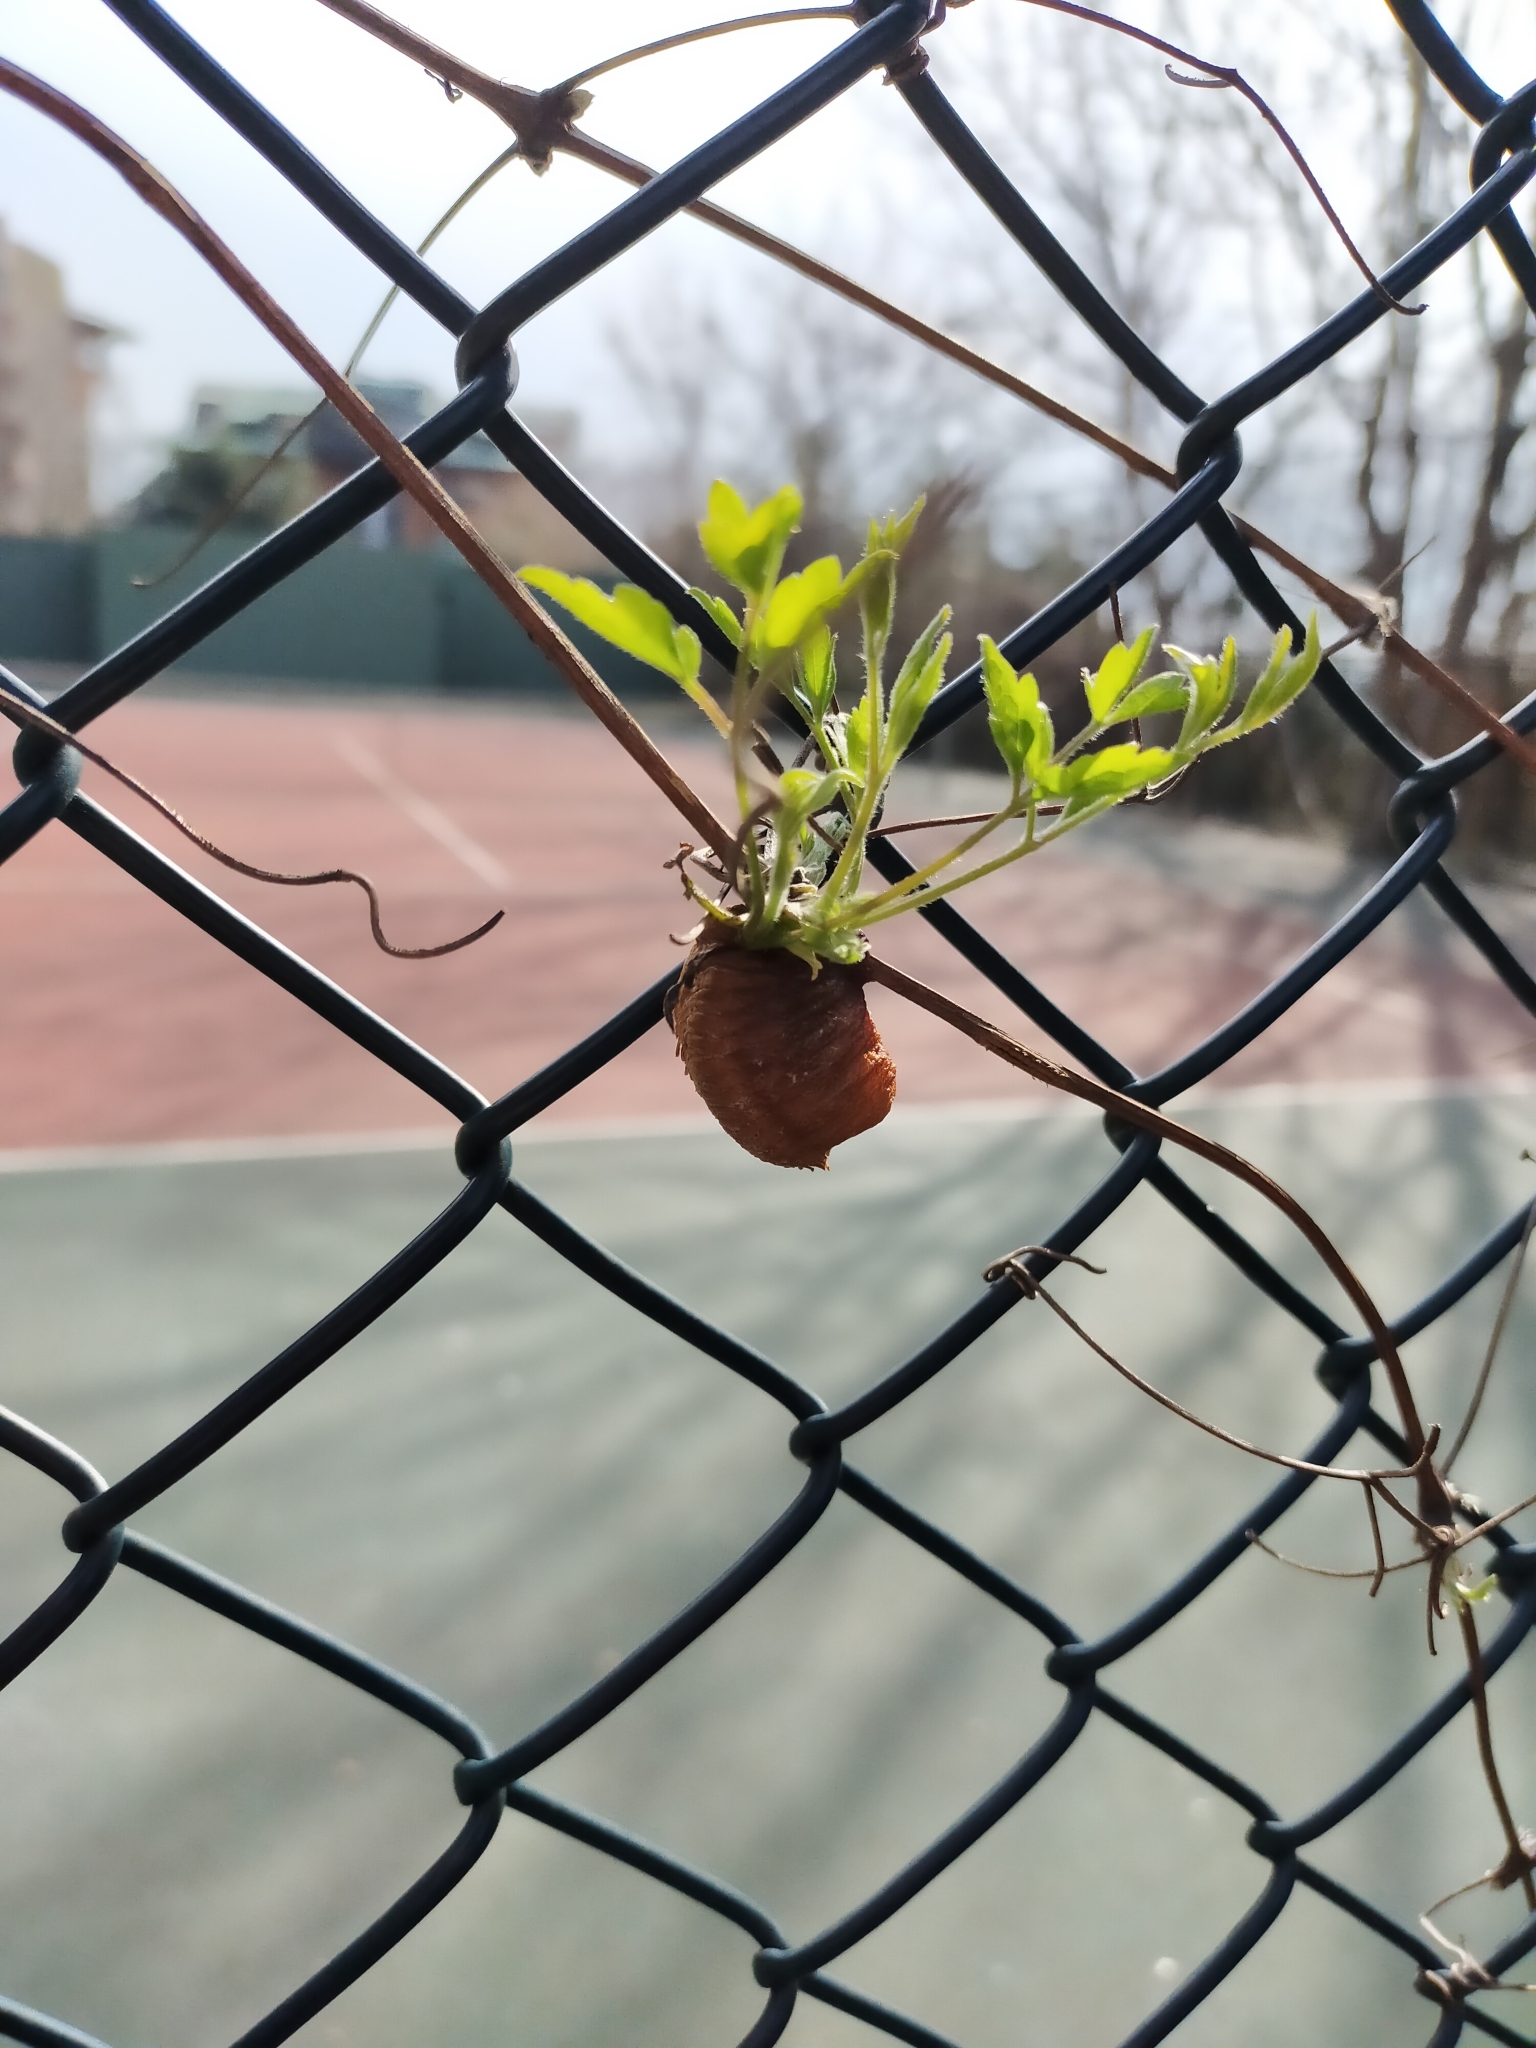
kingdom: Animalia
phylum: Arthropoda
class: Insecta
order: Mantodea
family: Mantidae
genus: Hierodula
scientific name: Hierodula transcaucasica
